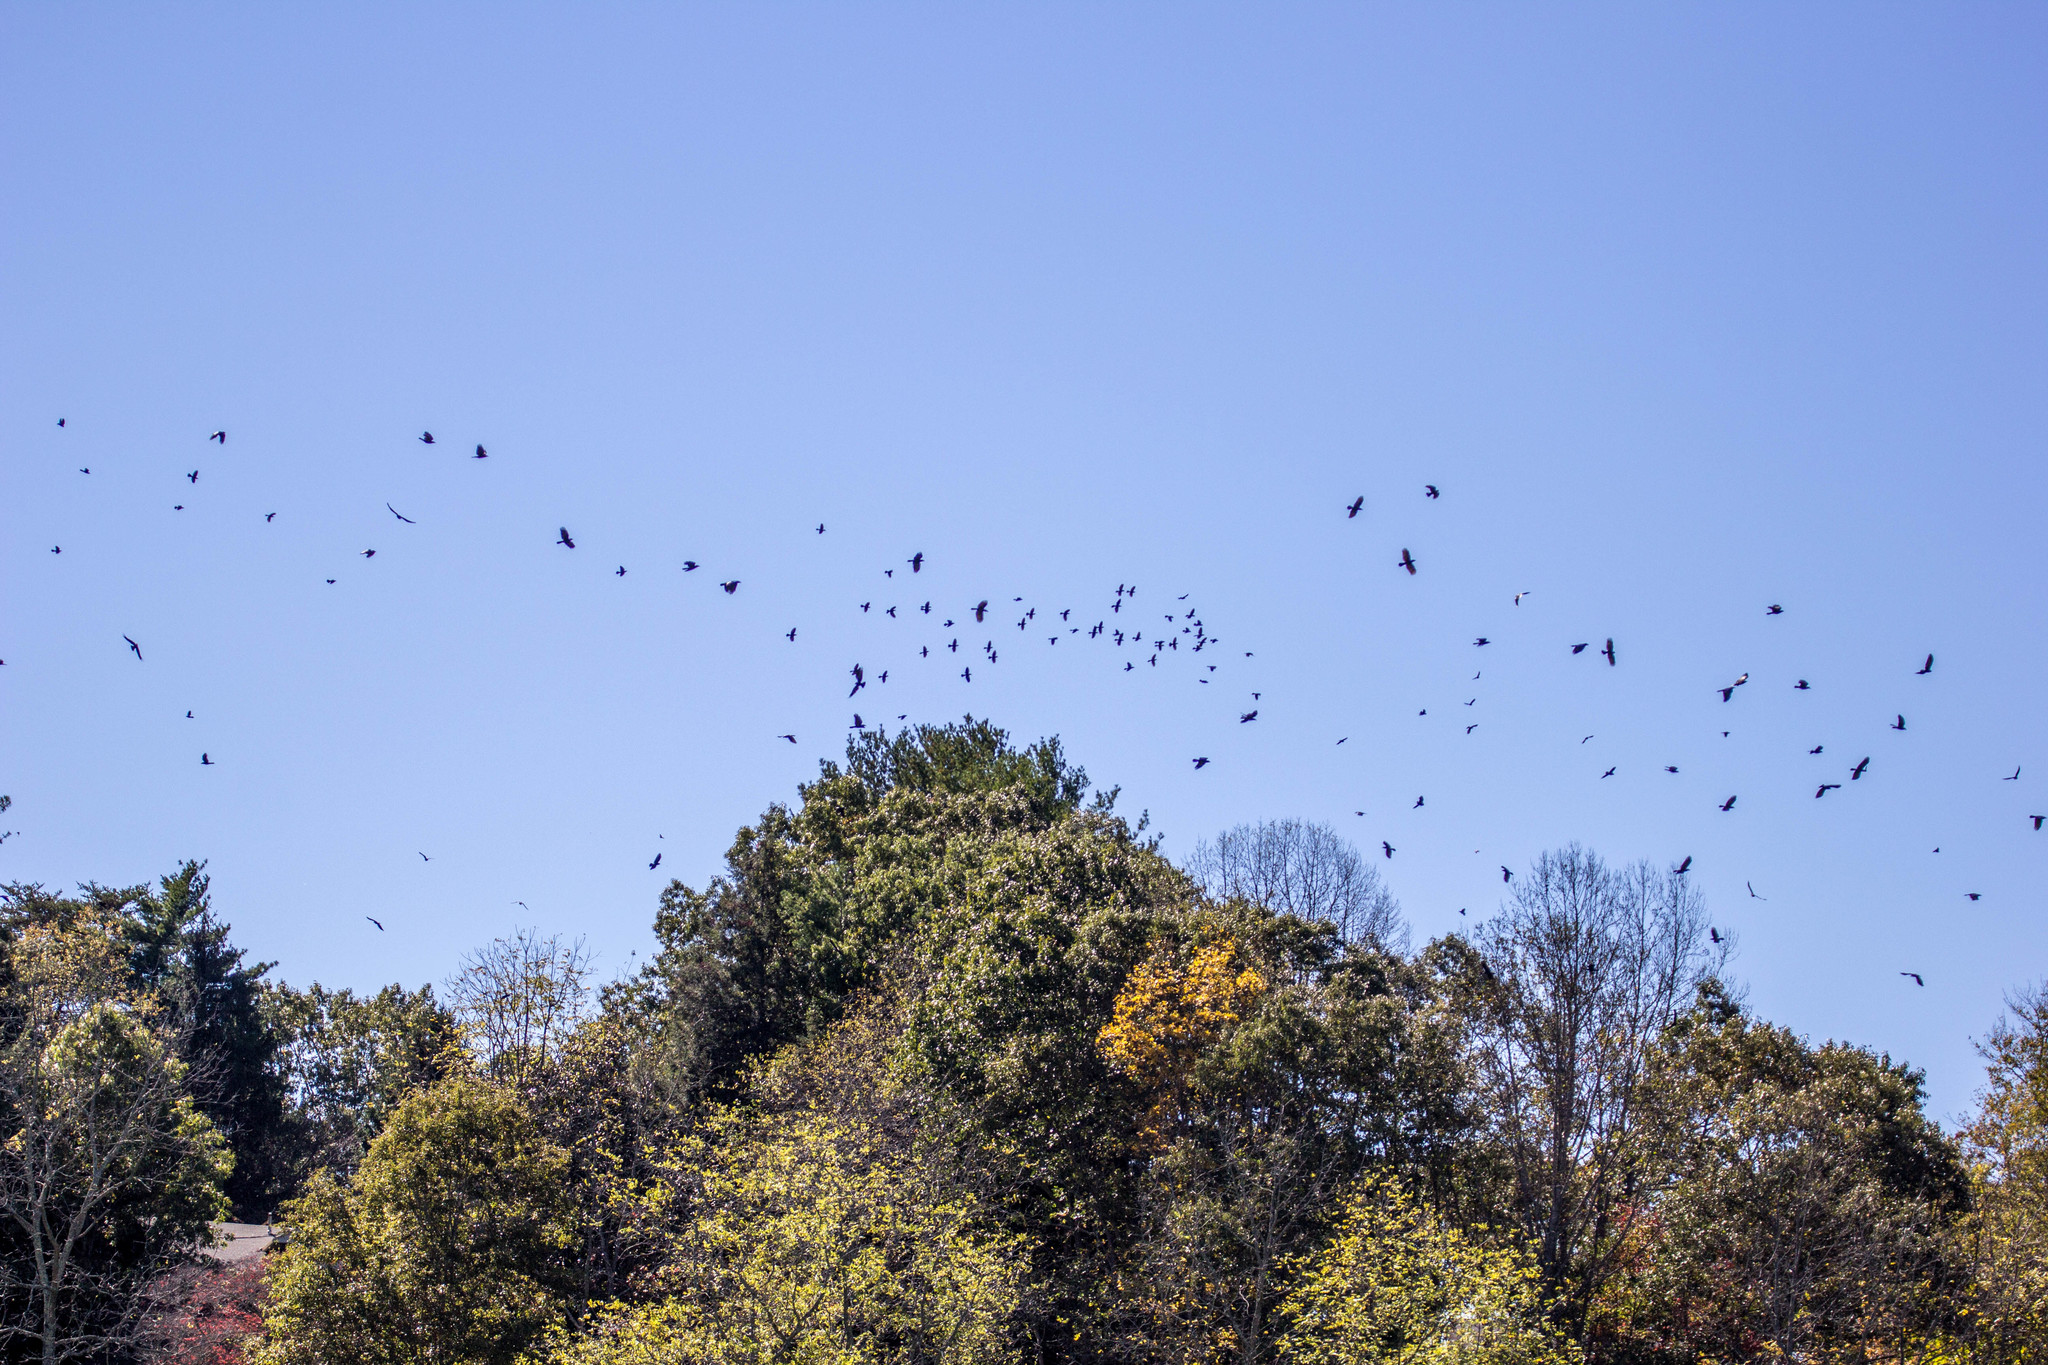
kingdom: Animalia
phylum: Chordata
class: Aves
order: Passeriformes
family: Corvidae
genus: Corvus
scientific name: Corvus brachyrhynchos
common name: American crow
